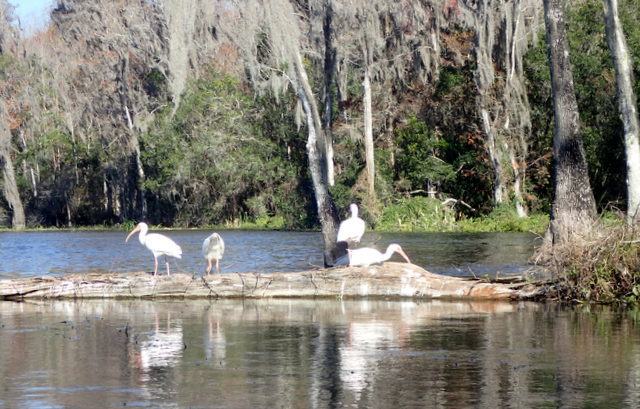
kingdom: Animalia
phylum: Chordata
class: Aves
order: Pelecaniformes
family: Threskiornithidae
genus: Eudocimus
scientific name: Eudocimus albus
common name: White ibis
